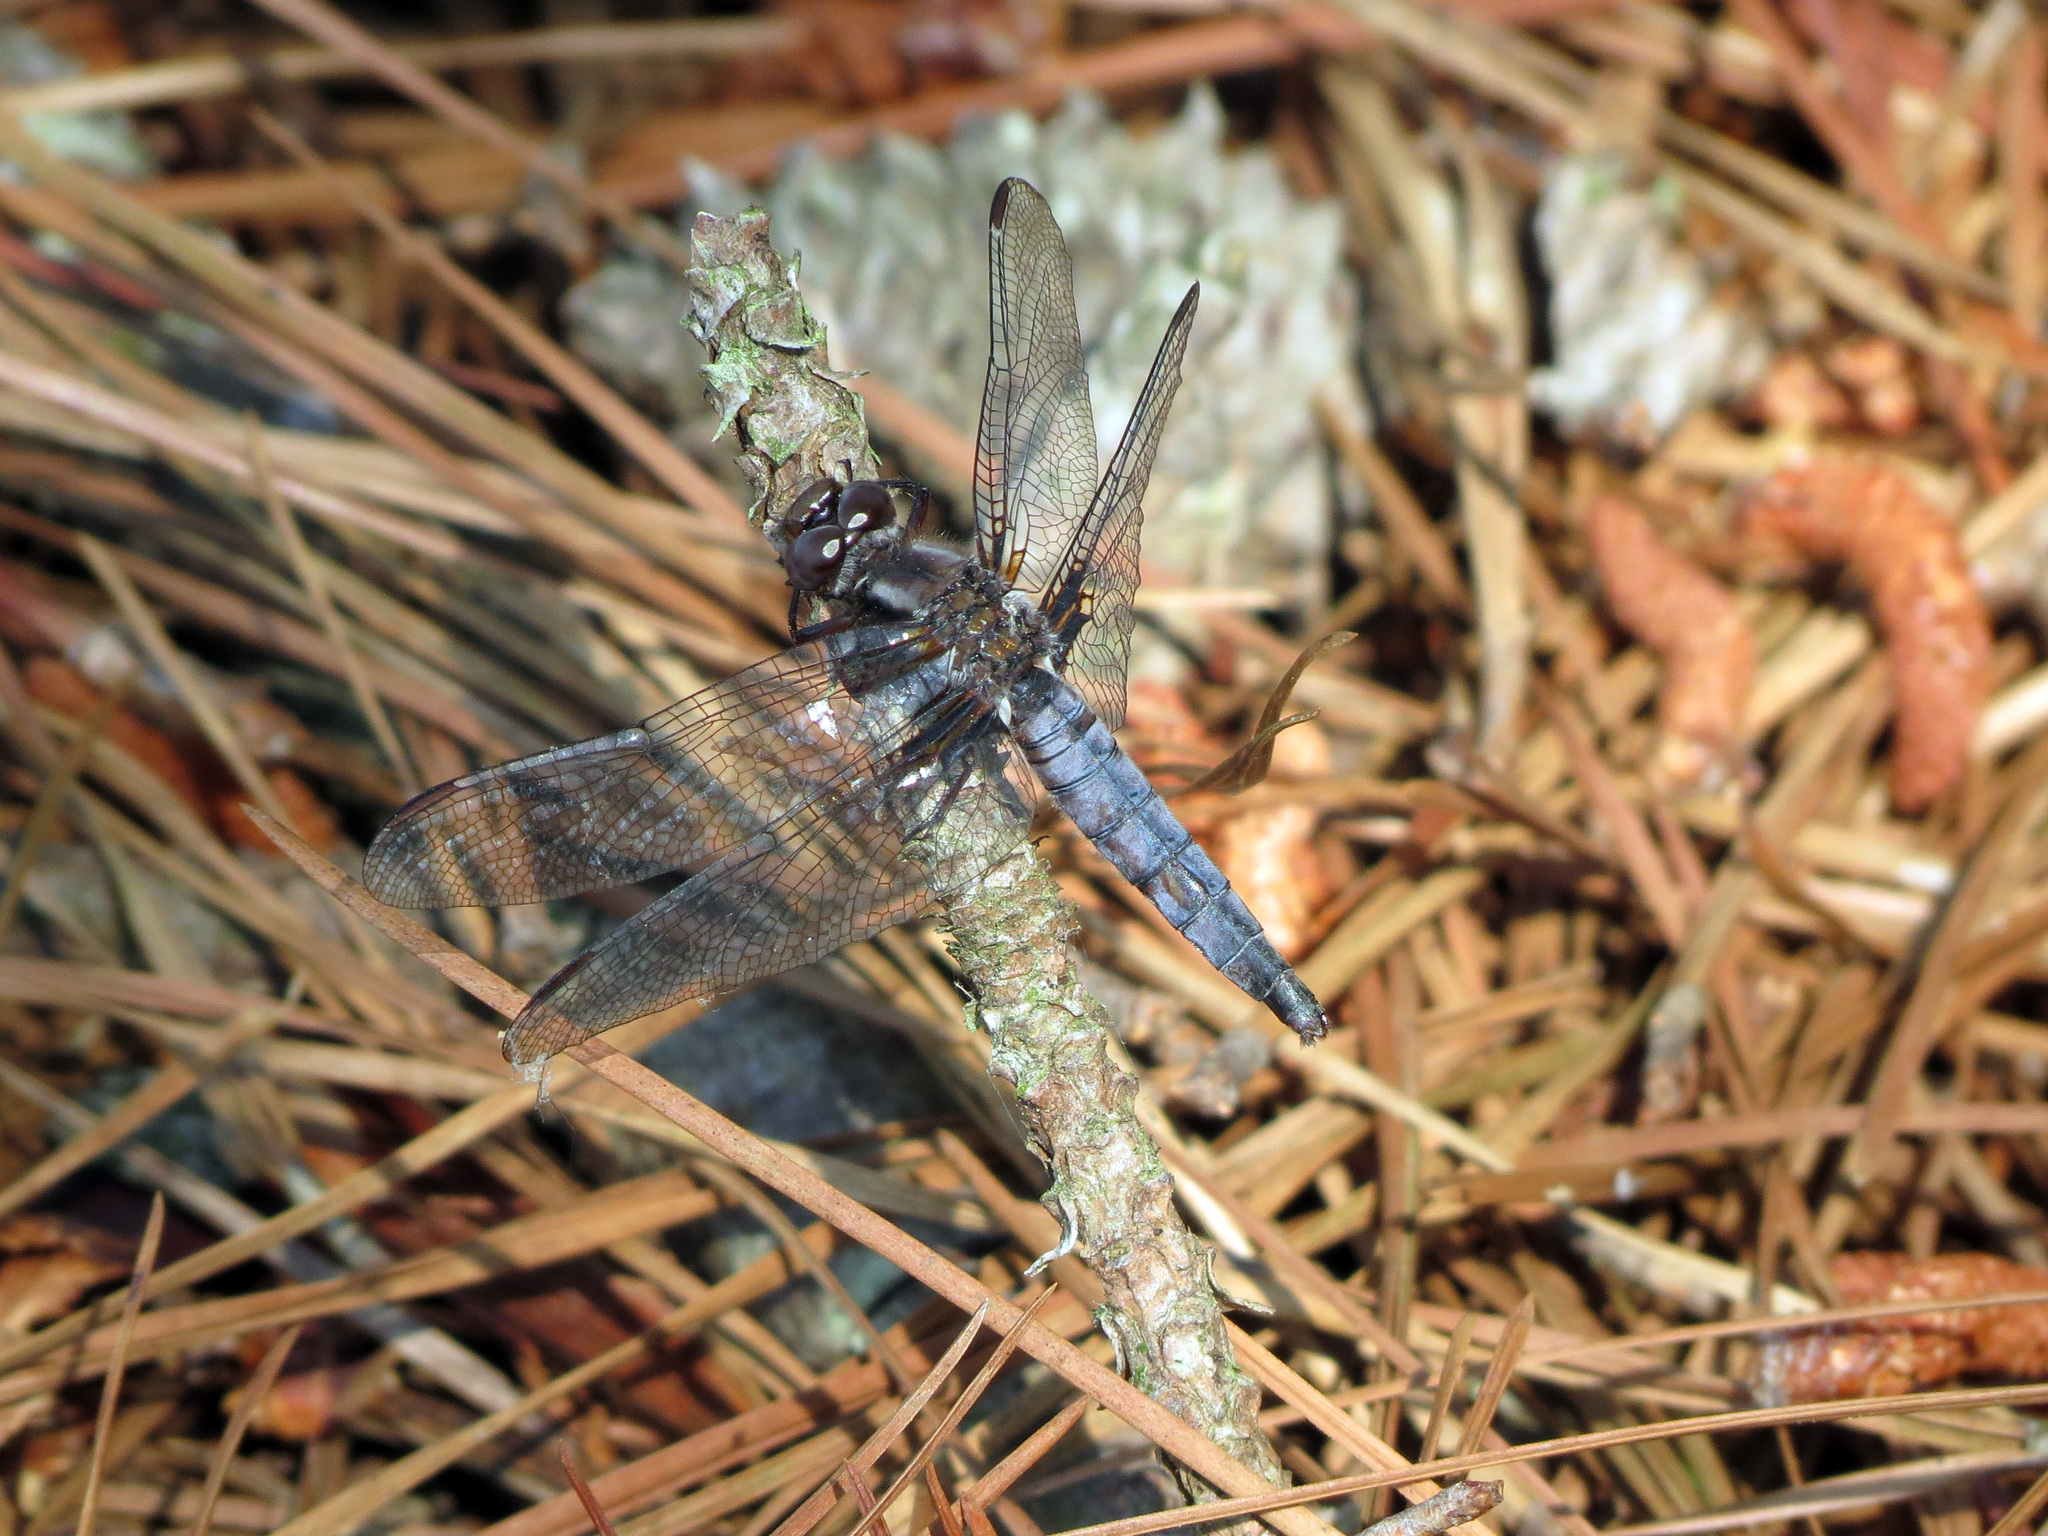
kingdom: Animalia
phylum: Arthropoda
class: Insecta
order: Odonata
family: Libellulidae
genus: Ladona
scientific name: Ladona deplanata
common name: Blue corporal
